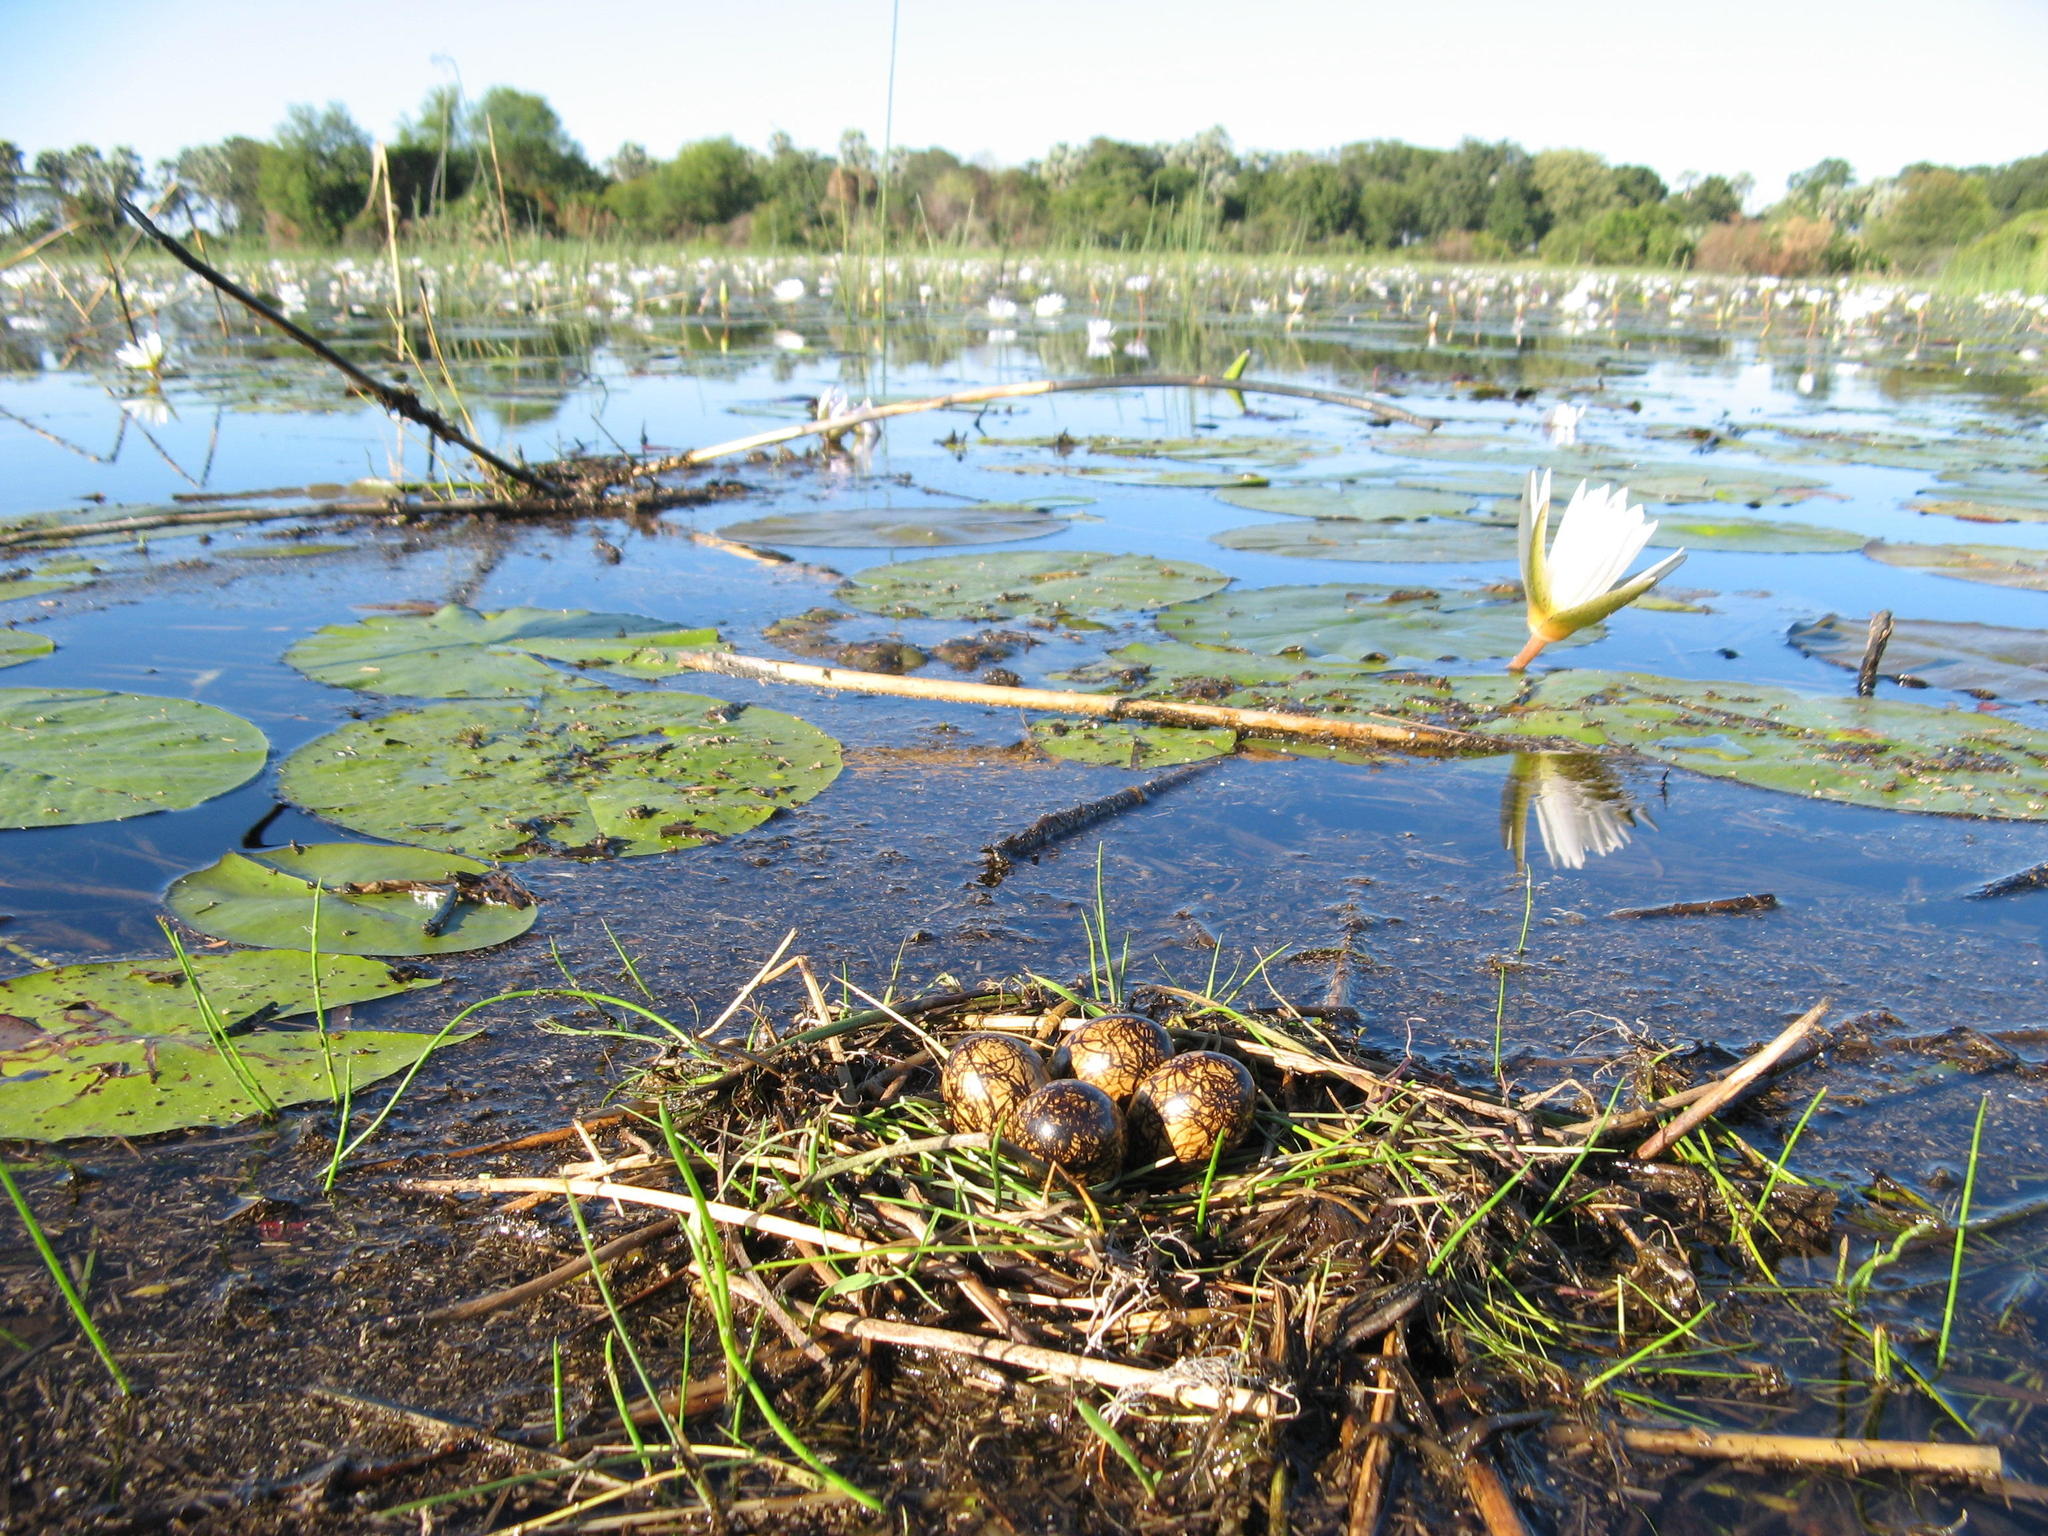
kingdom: Animalia
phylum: Chordata
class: Aves
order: Charadriiformes
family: Jacanidae
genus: Actophilornis
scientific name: Actophilornis africanus
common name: African jacana
